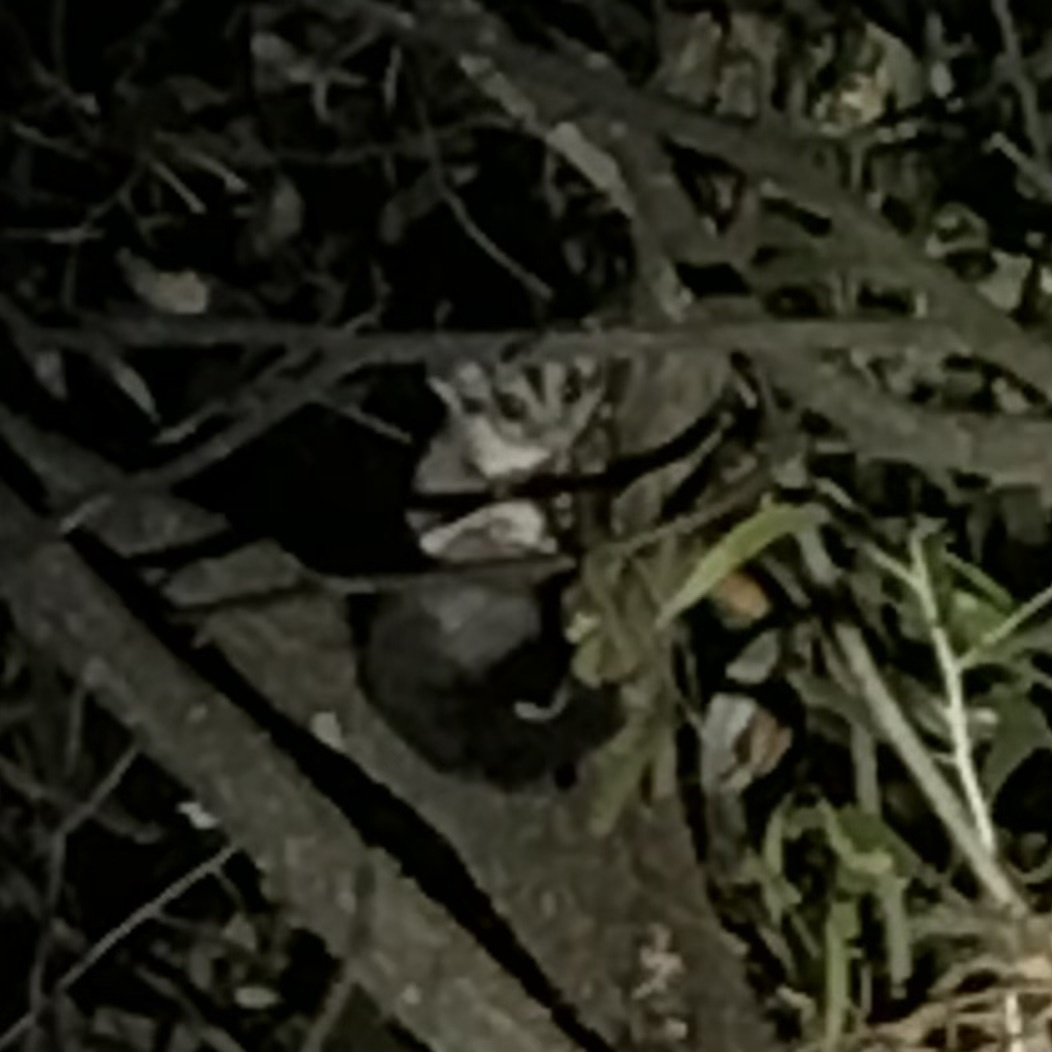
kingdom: Animalia
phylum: Chordata
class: Mammalia
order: Diprotodontia
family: Petauridae
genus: Petaurus
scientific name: Petaurus breviceps
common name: Sugar glider
